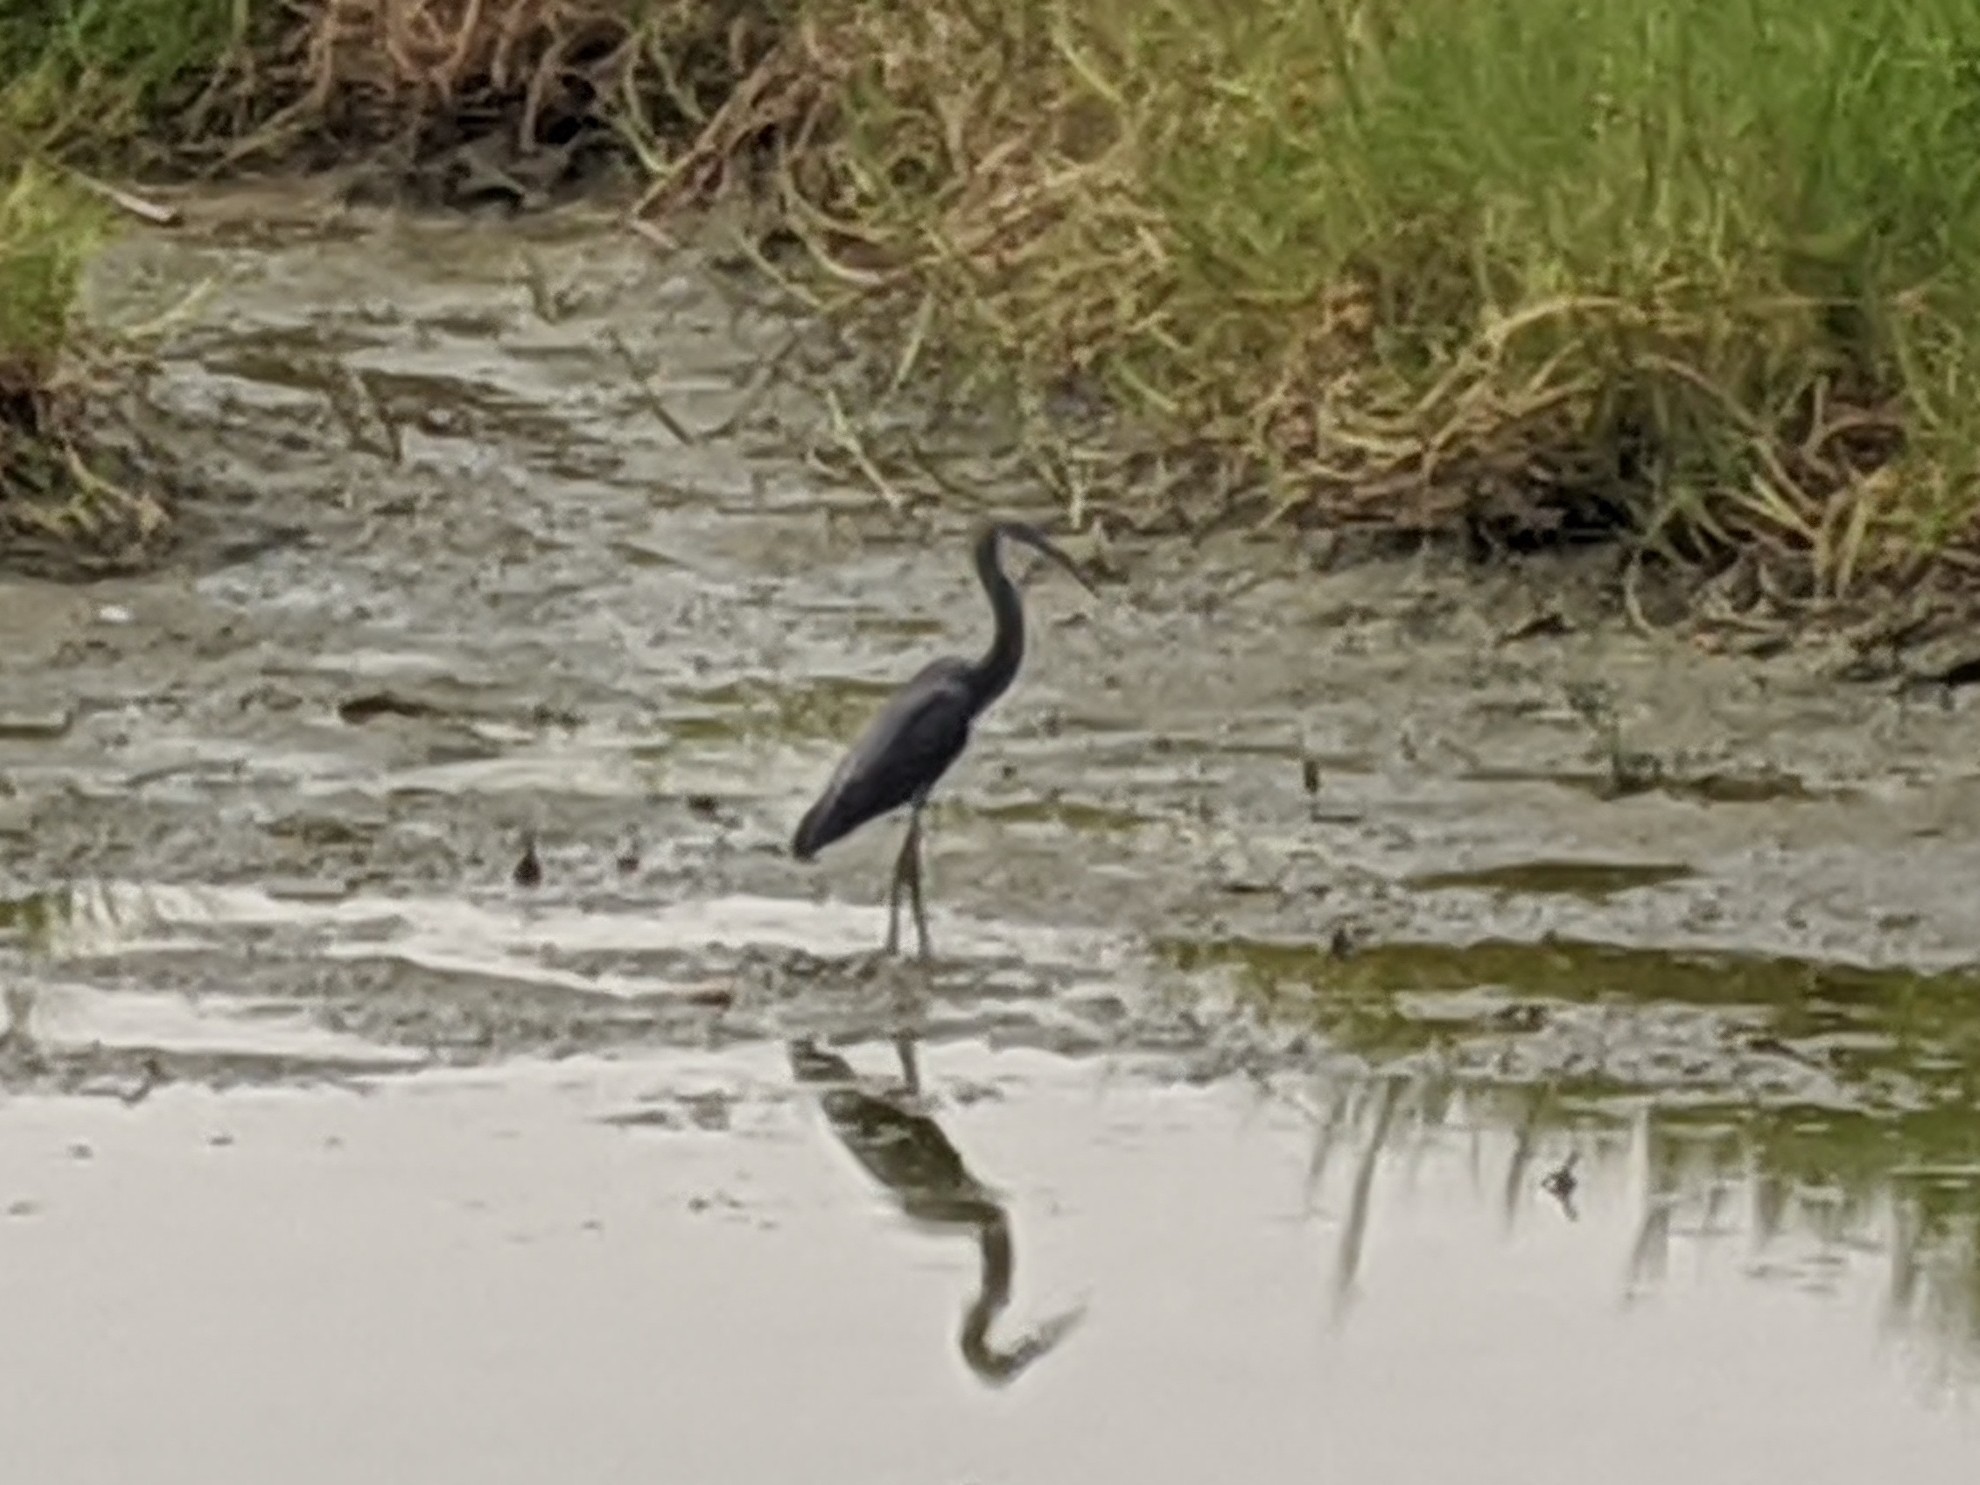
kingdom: Animalia
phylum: Chordata
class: Aves
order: Pelecaniformes
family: Ardeidae
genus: Egretta
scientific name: Egretta gularis
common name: Western reef-heron
